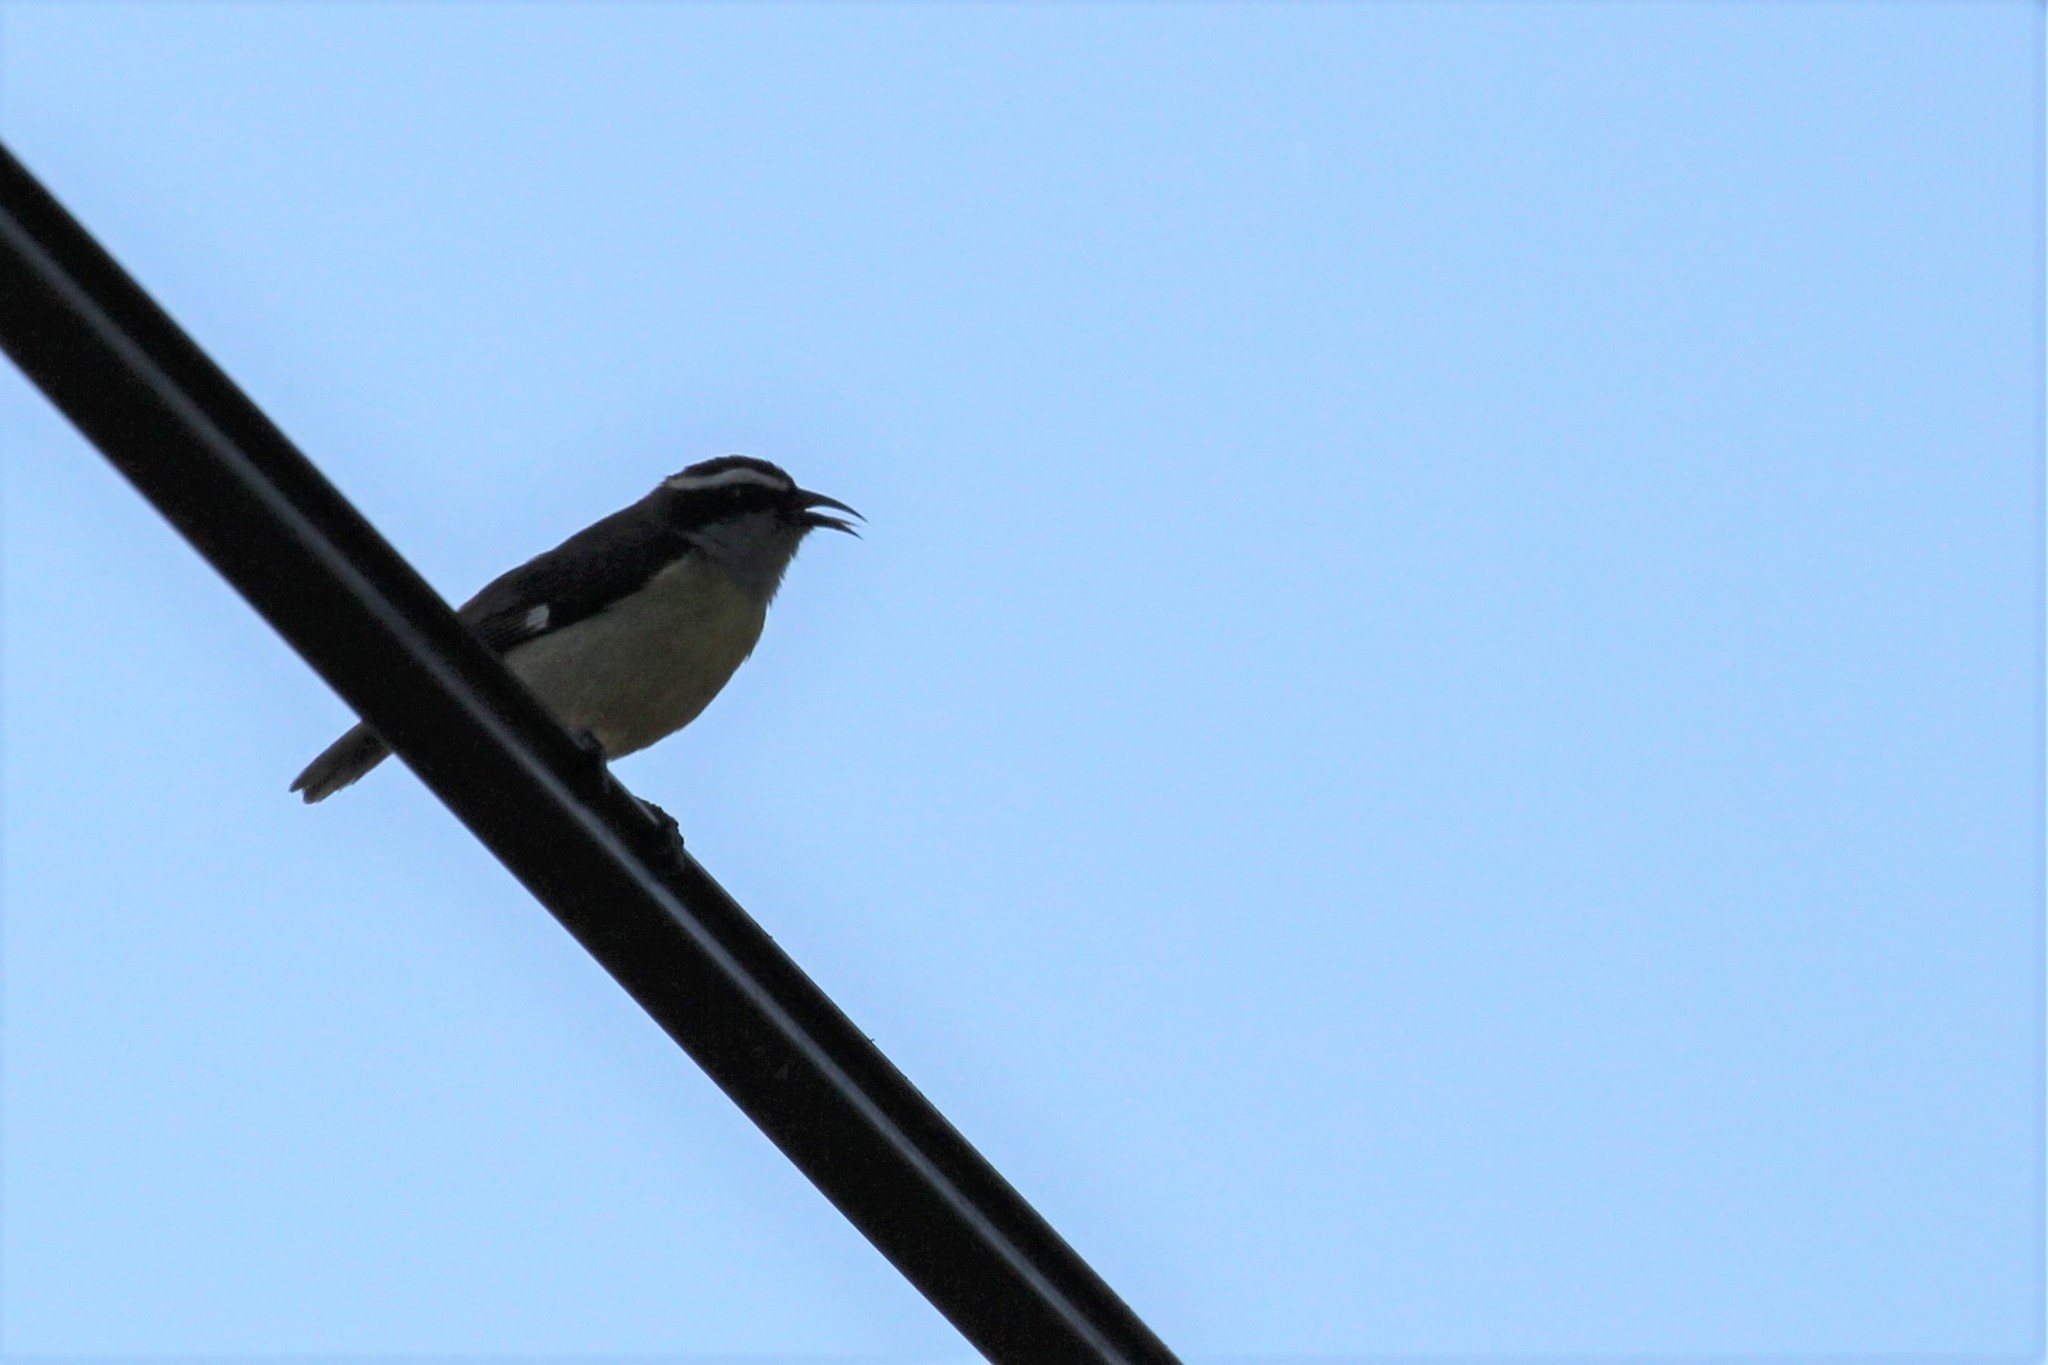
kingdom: Animalia
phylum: Chordata
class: Aves
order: Passeriformes
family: Thraupidae
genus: Coereba
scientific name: Coereba flaveola
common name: Bananaquit
